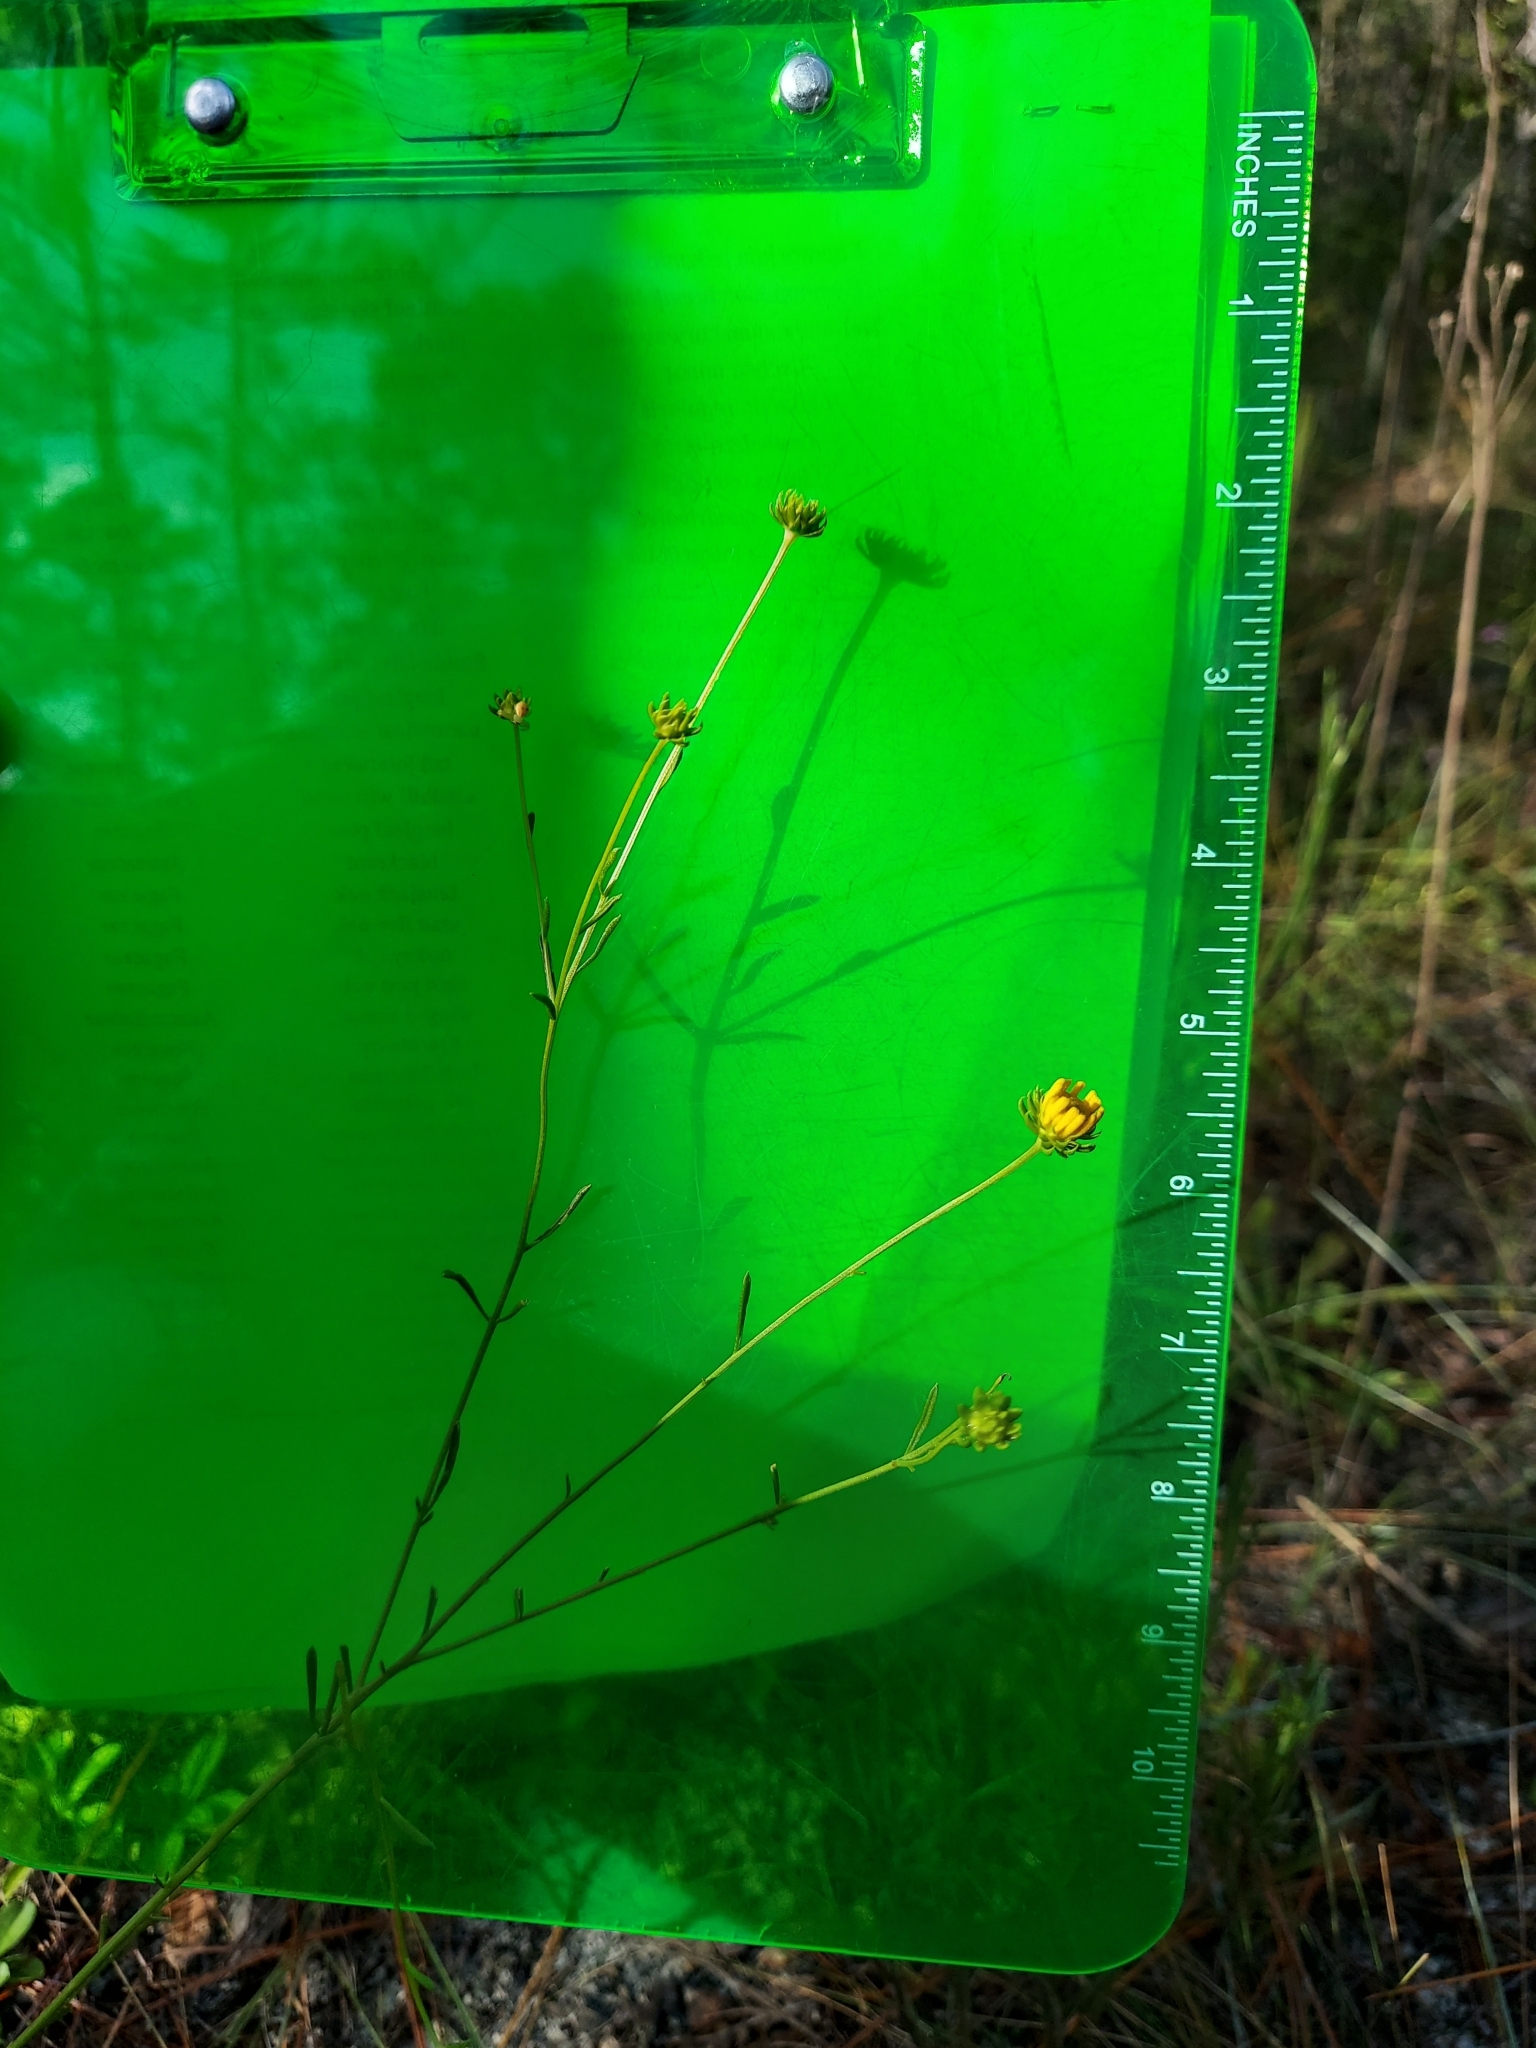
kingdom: Plantae
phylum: Tracheophyta
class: Magnoliopsida
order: Asterales
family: Asteraceae
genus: Balduina
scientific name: Balduina angustifolia
